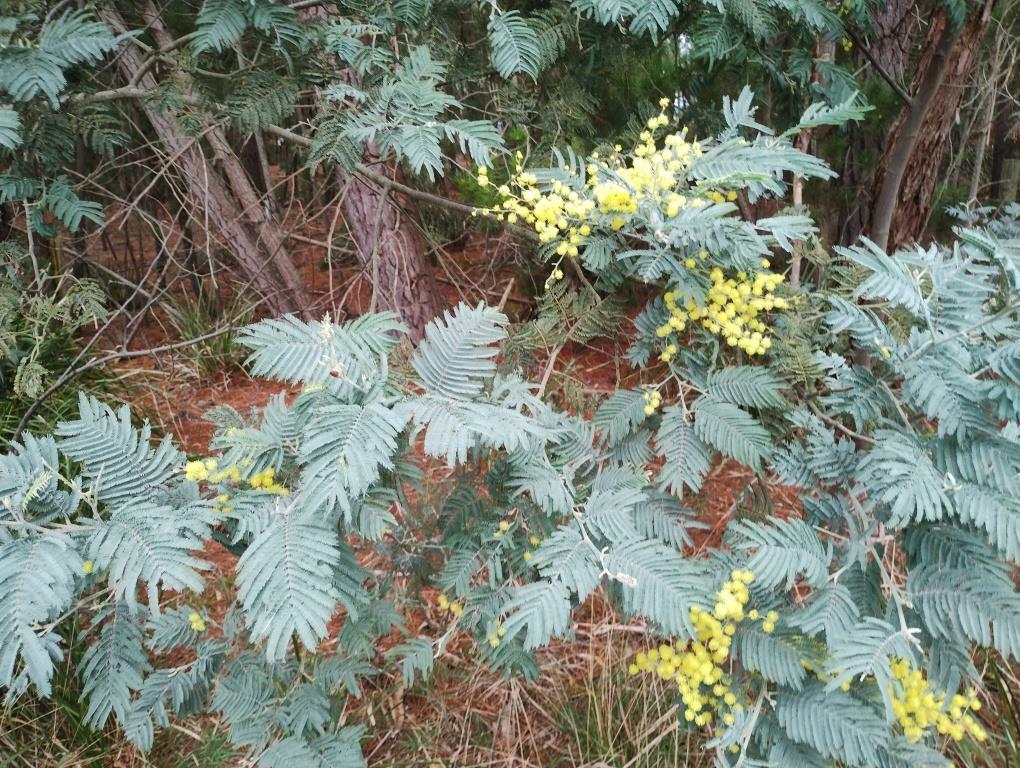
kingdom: Plantae
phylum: Tracheophyta
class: Magnoliopsida
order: Fabales
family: Fabaceae
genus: Acacia
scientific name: Acacia dealbata
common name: Silver wattle
